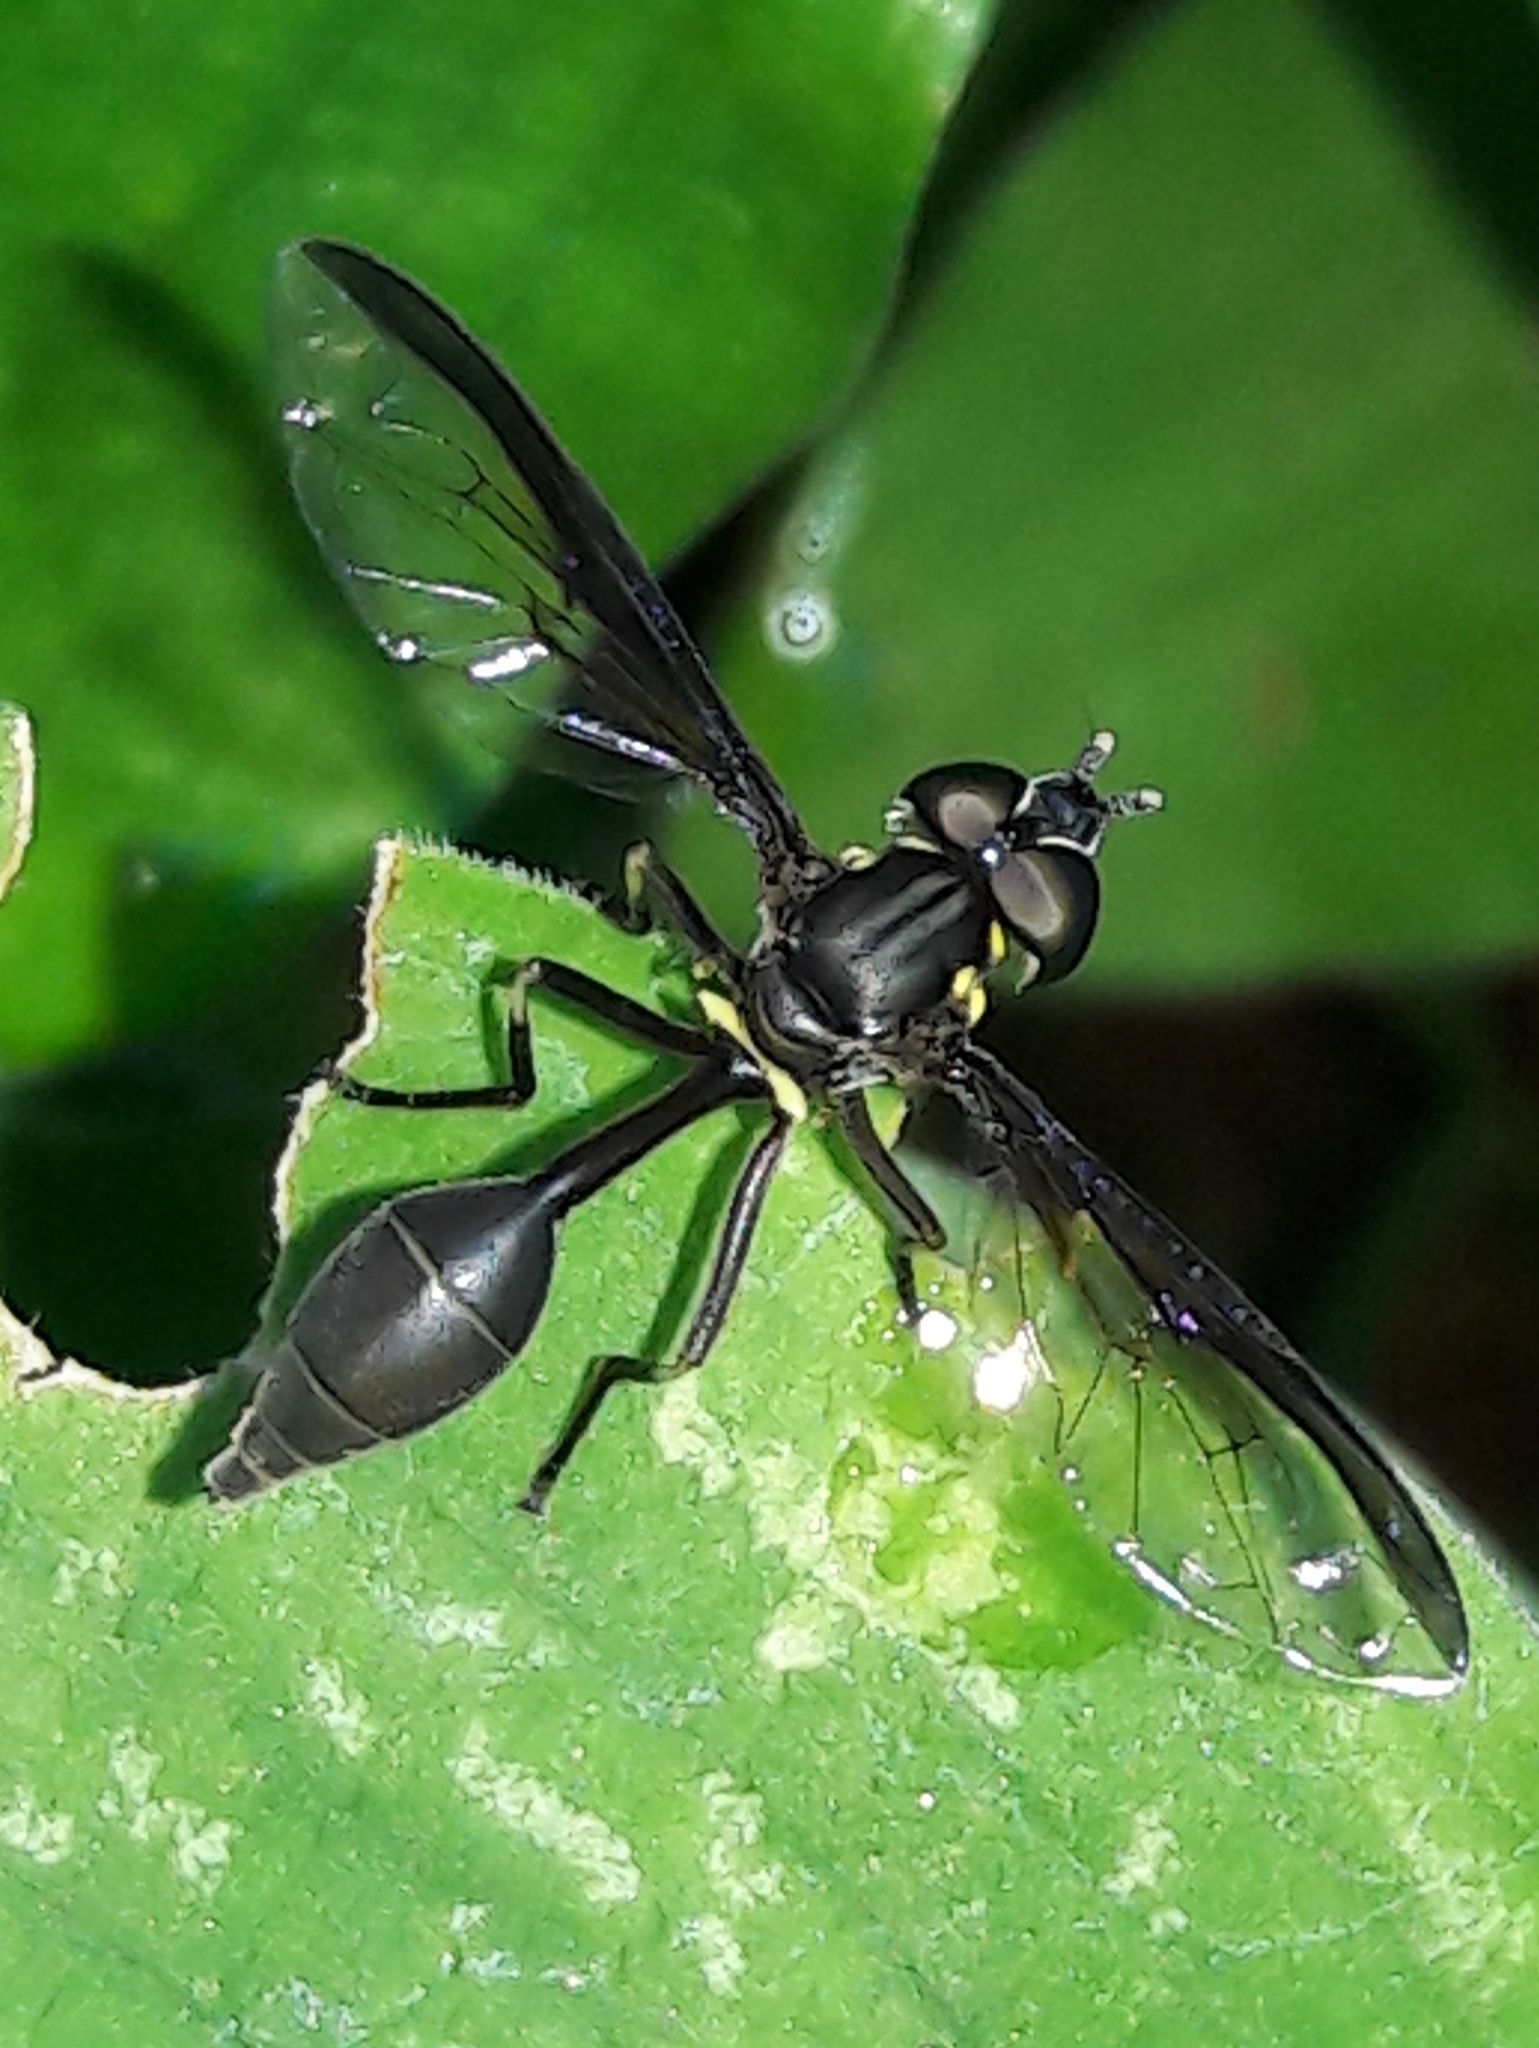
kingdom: Animalia
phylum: Arthropoda
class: Insecta
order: Diptera
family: Syrphidae
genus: Salpingogaster
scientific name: Salpingogaster nigra
